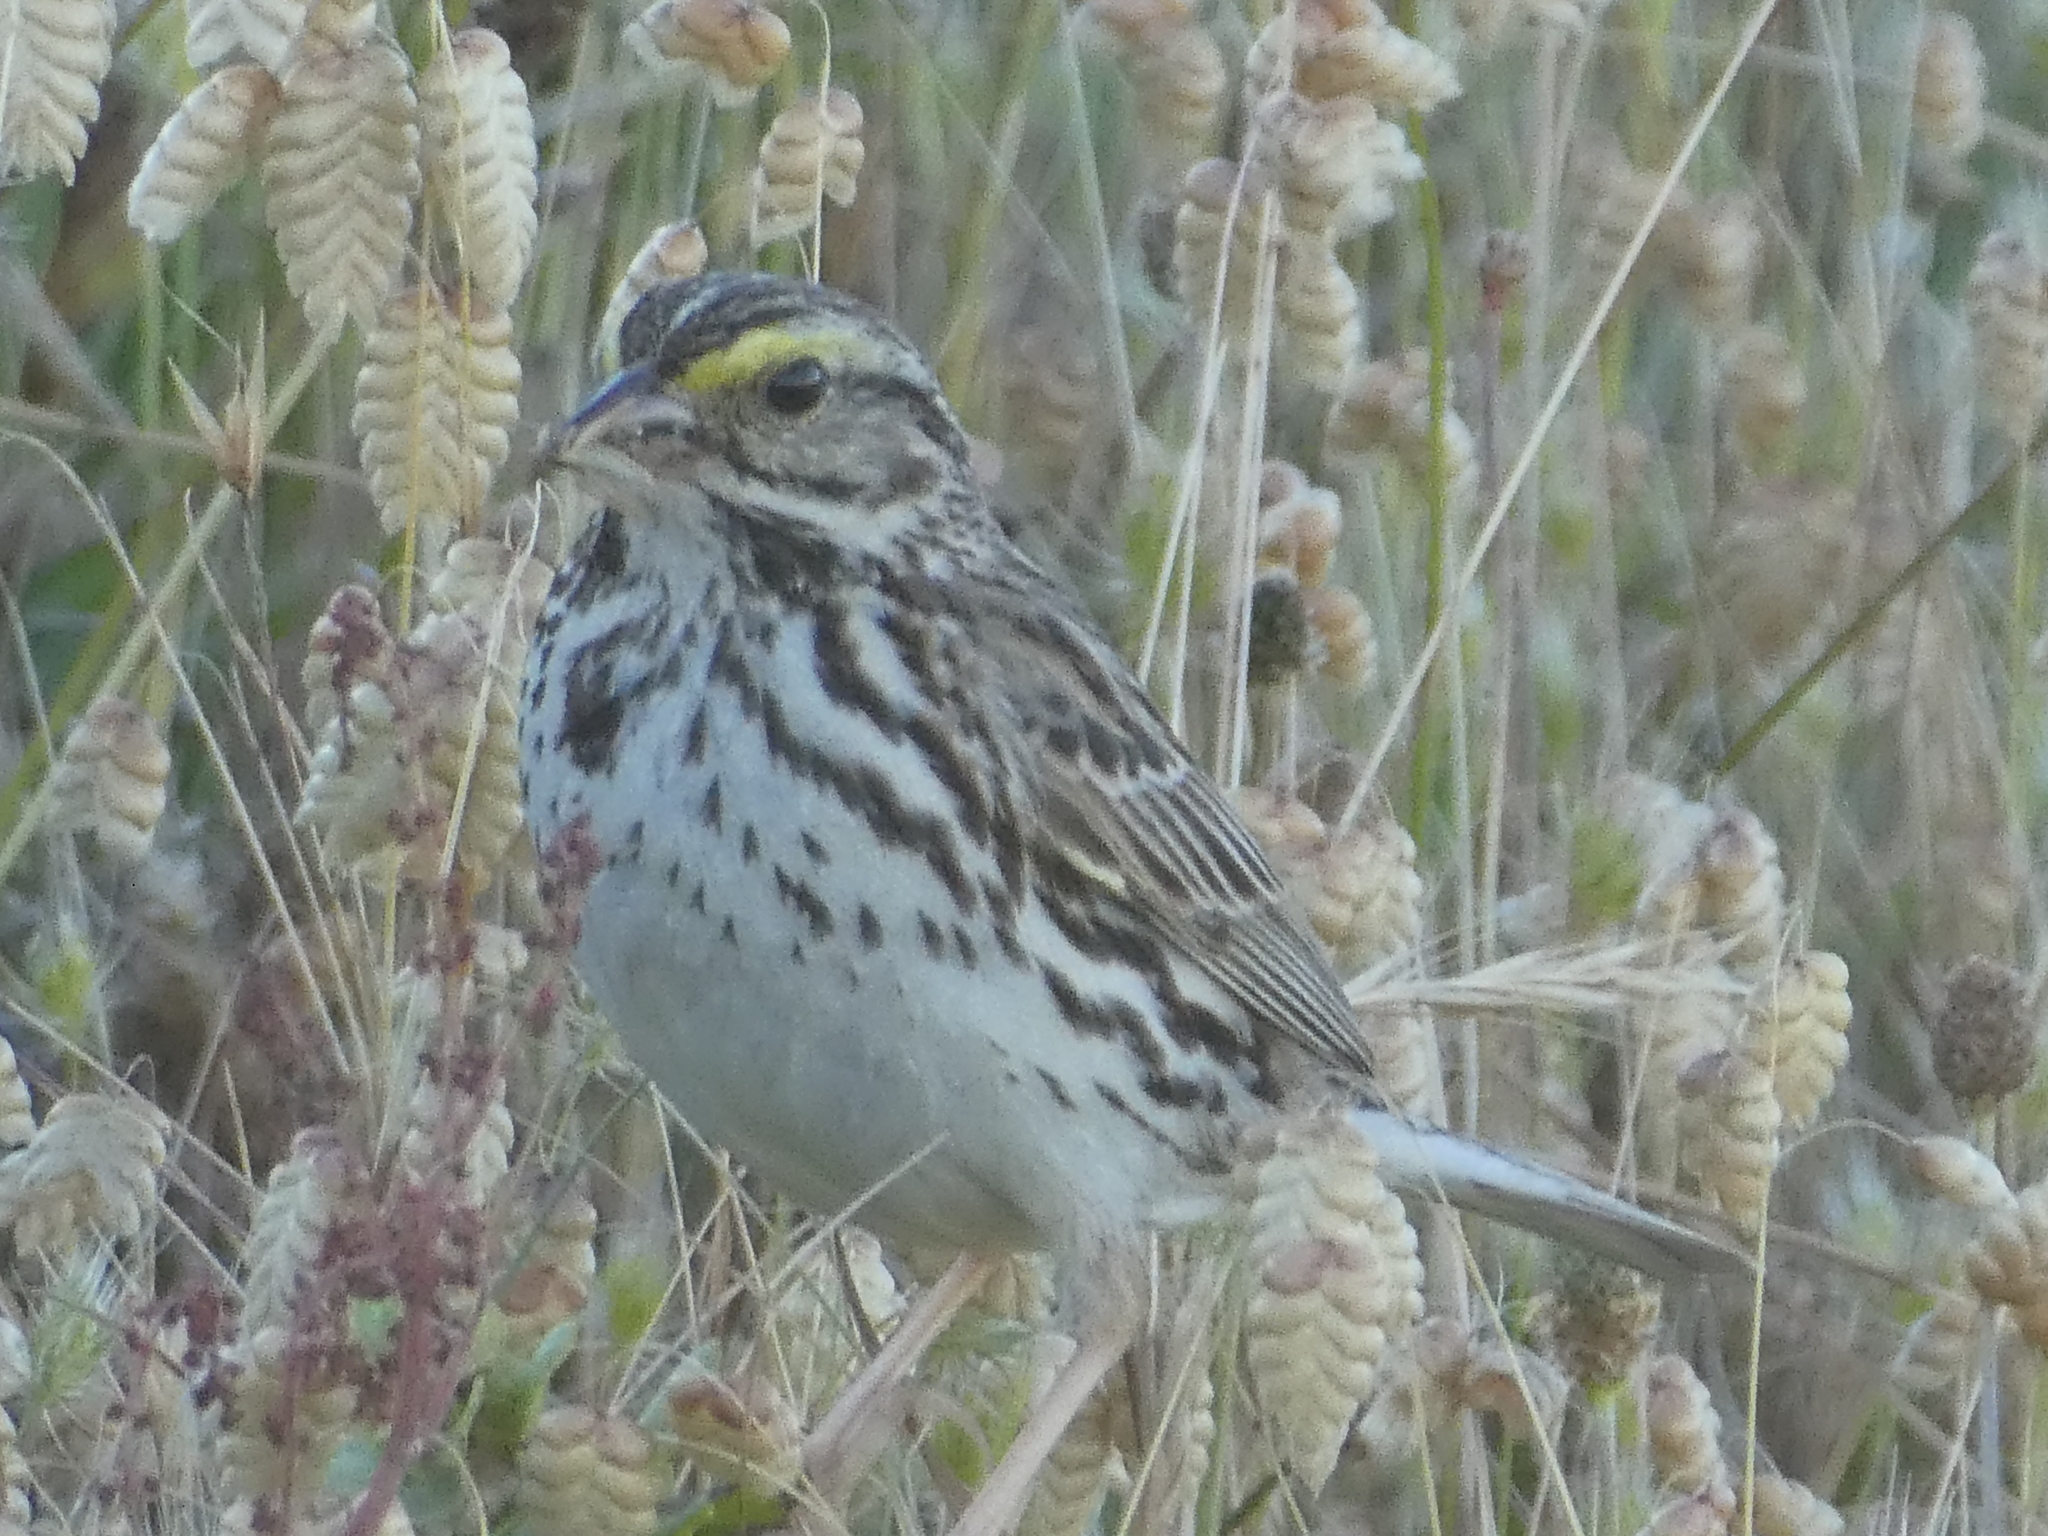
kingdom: Animalia
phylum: Chordata
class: Aves
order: Passeriformes
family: Passerellidae
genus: Passerculus
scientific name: Passerculus sandwichensis
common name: Savannah sparrow
